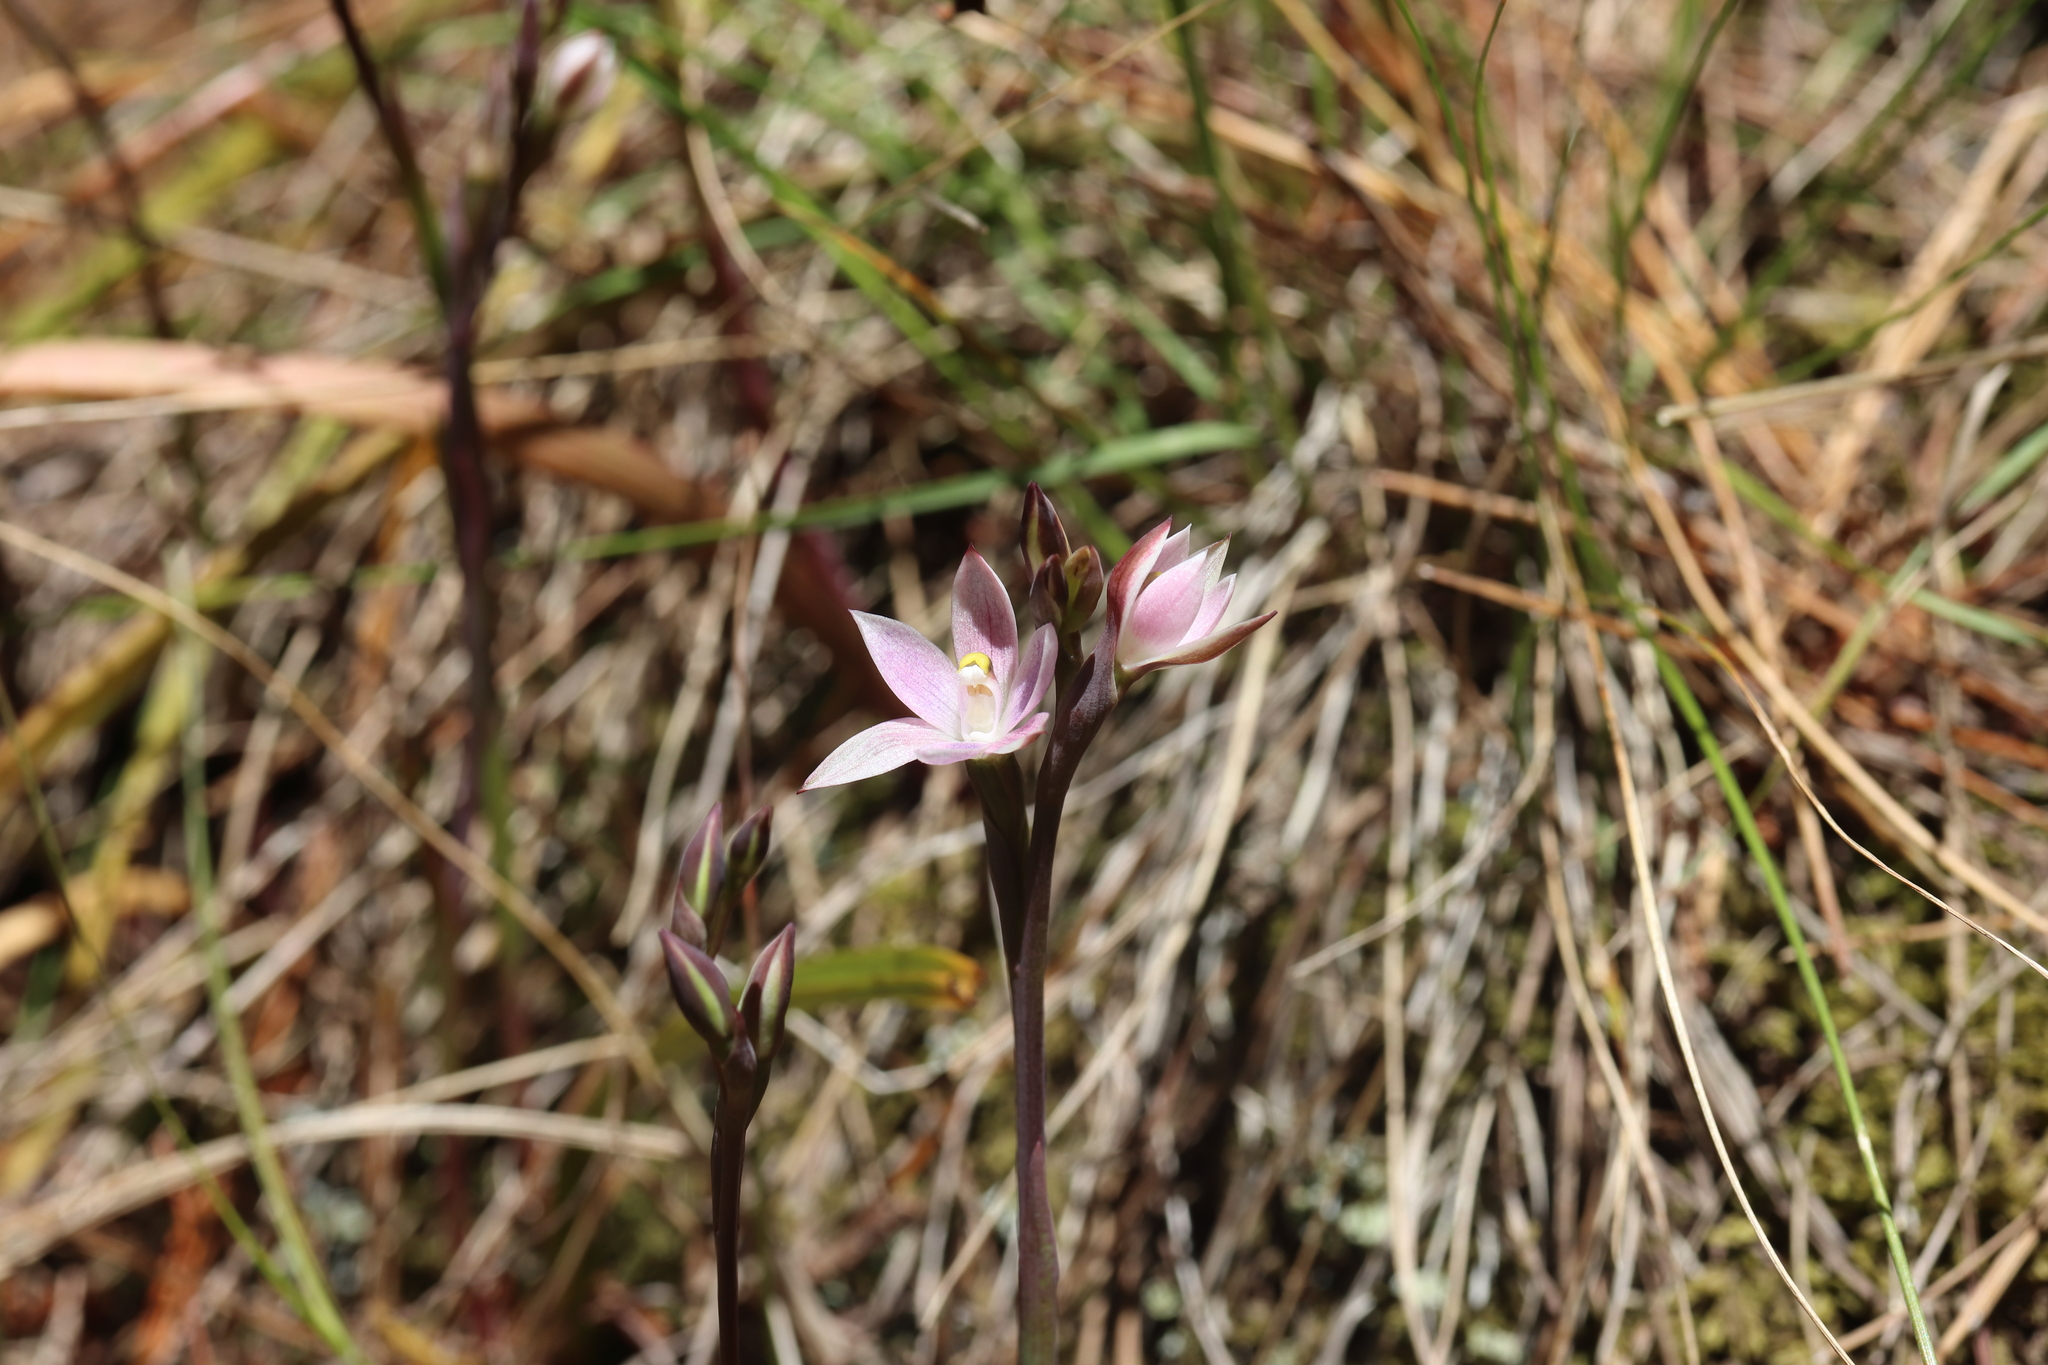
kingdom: Plantae
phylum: Tracheophyta
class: Liliopsida
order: Asparagales
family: Orchidaceae
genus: Thelymitra
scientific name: Thelymitra longifolia
